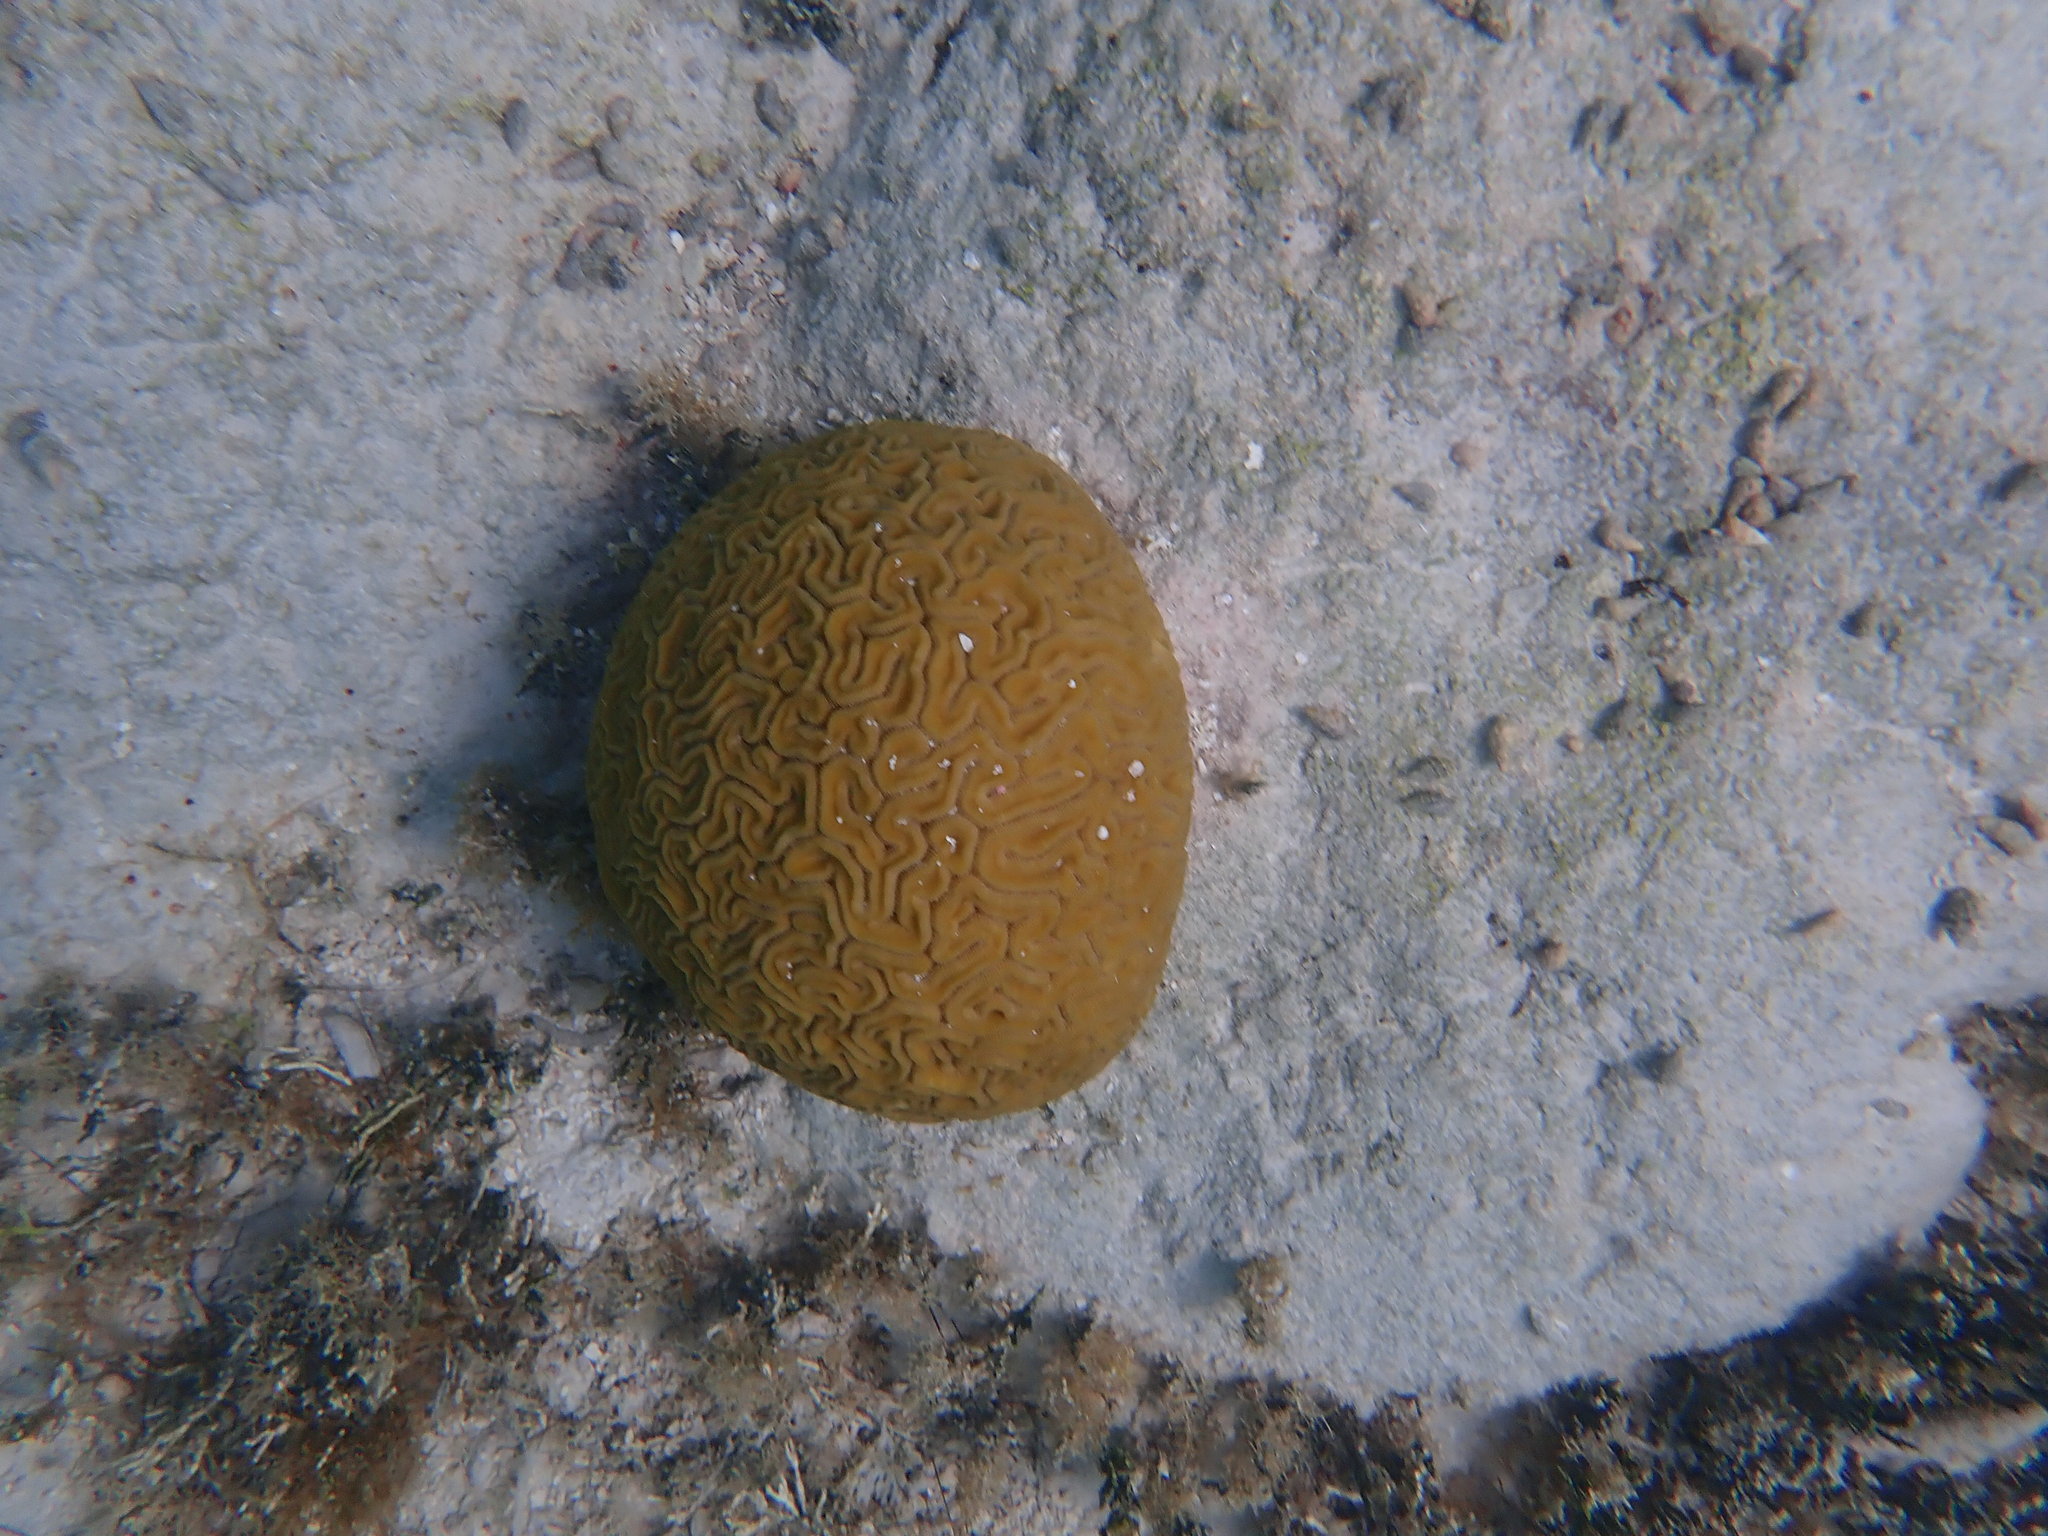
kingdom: Animalia
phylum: Cnidaria
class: Anthozoa
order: Scleractinia
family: Faviidae
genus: Diploria
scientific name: Diploria labyrinthiformis
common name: Grooved brain coral
